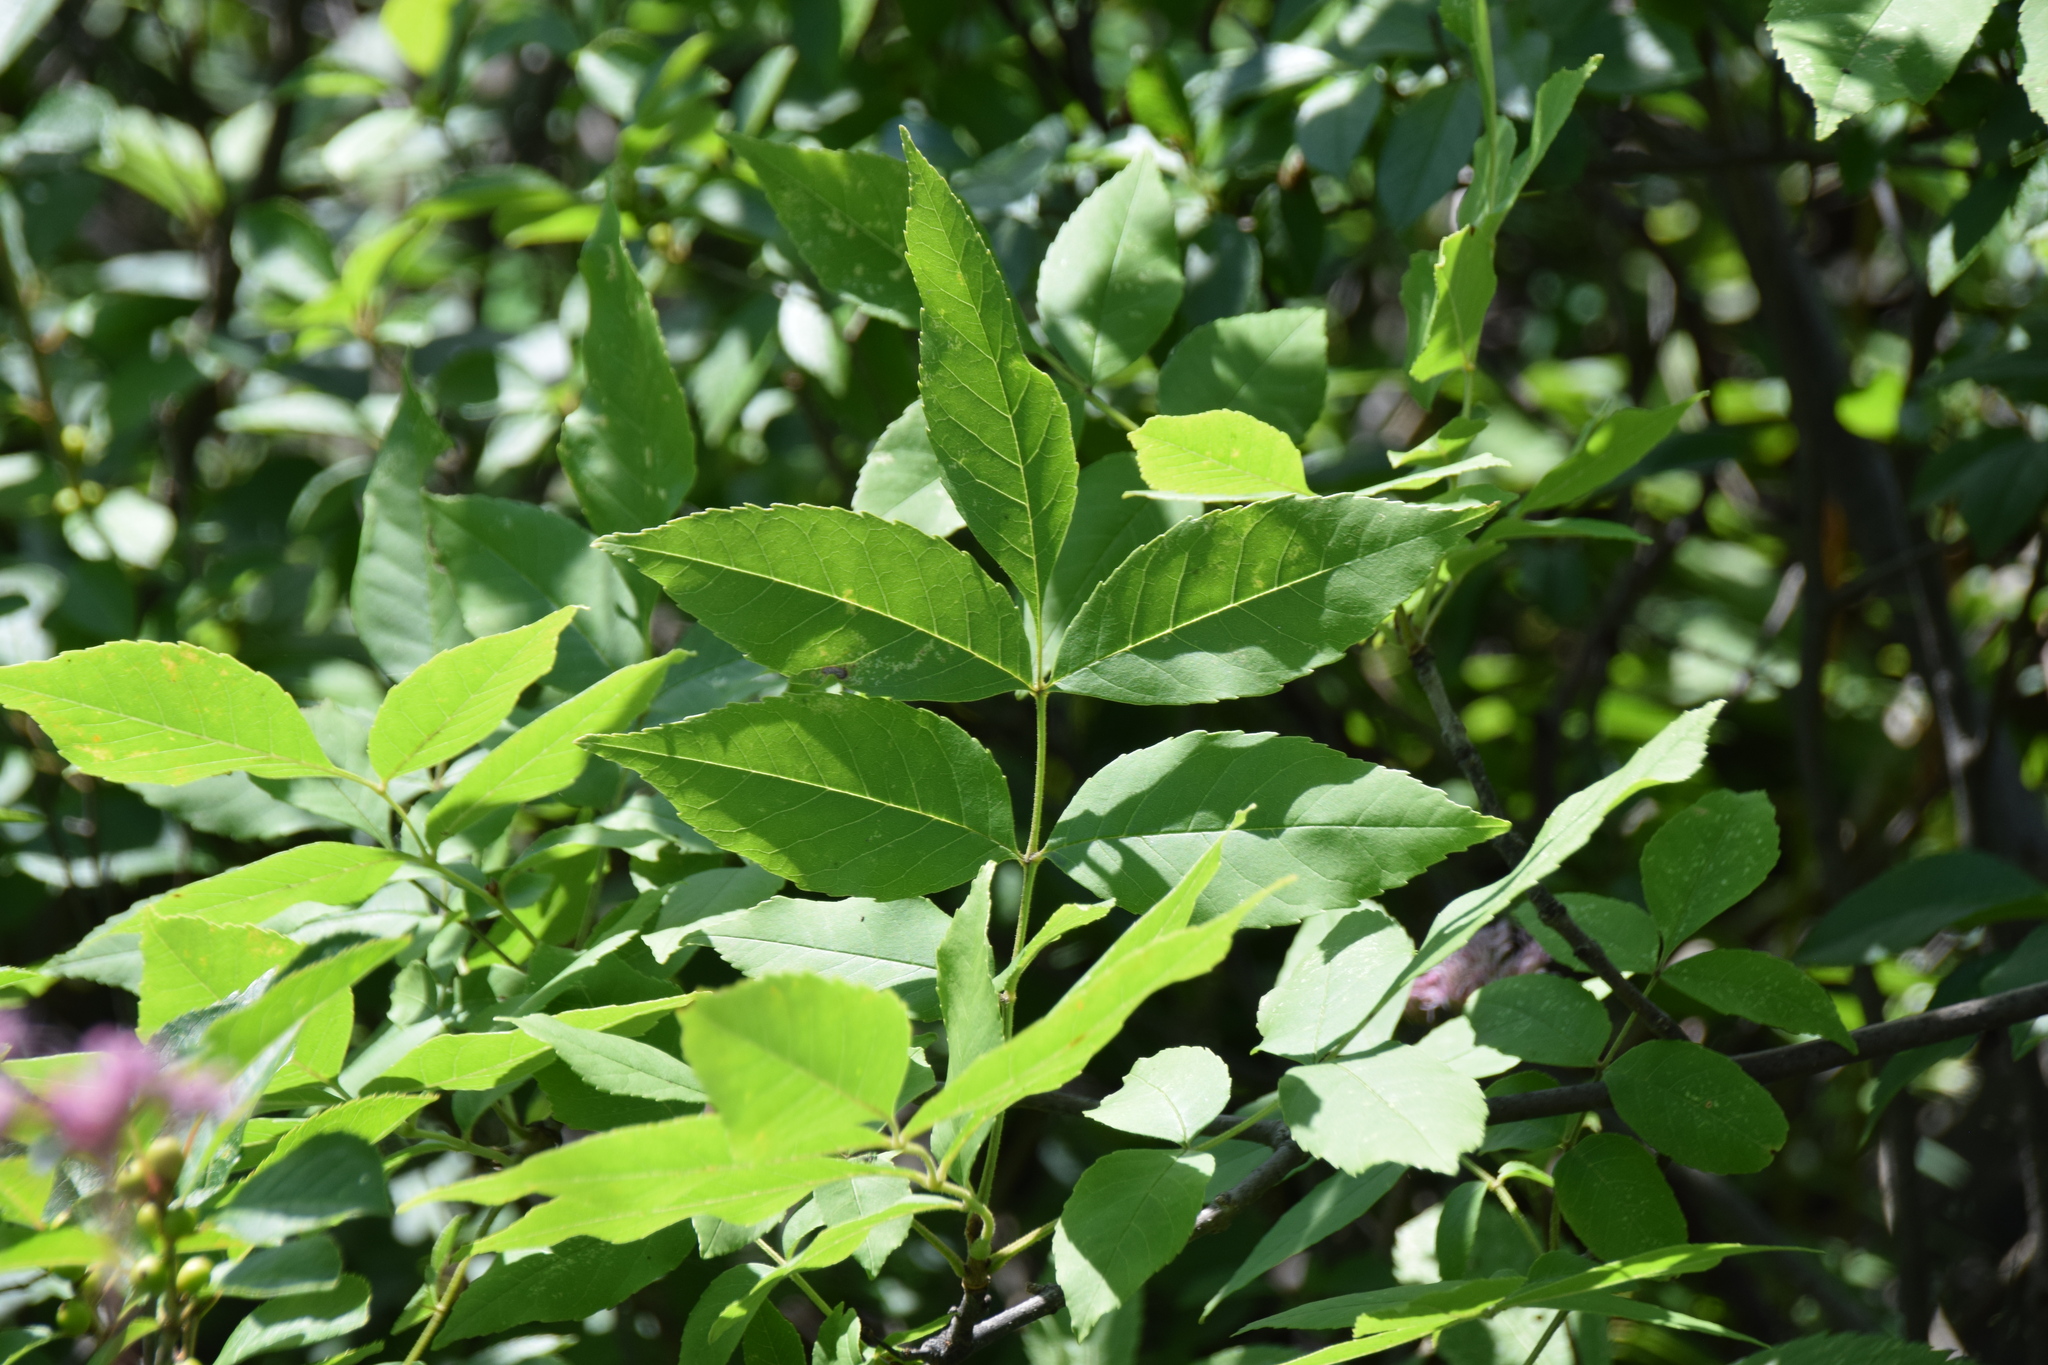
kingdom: Plantae
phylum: Tracheophyta
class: Magnoliopsida
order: Lamiales
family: Oleaceae
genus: Fraxinus
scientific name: Fraxinus pennsylvanica
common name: Green ash
